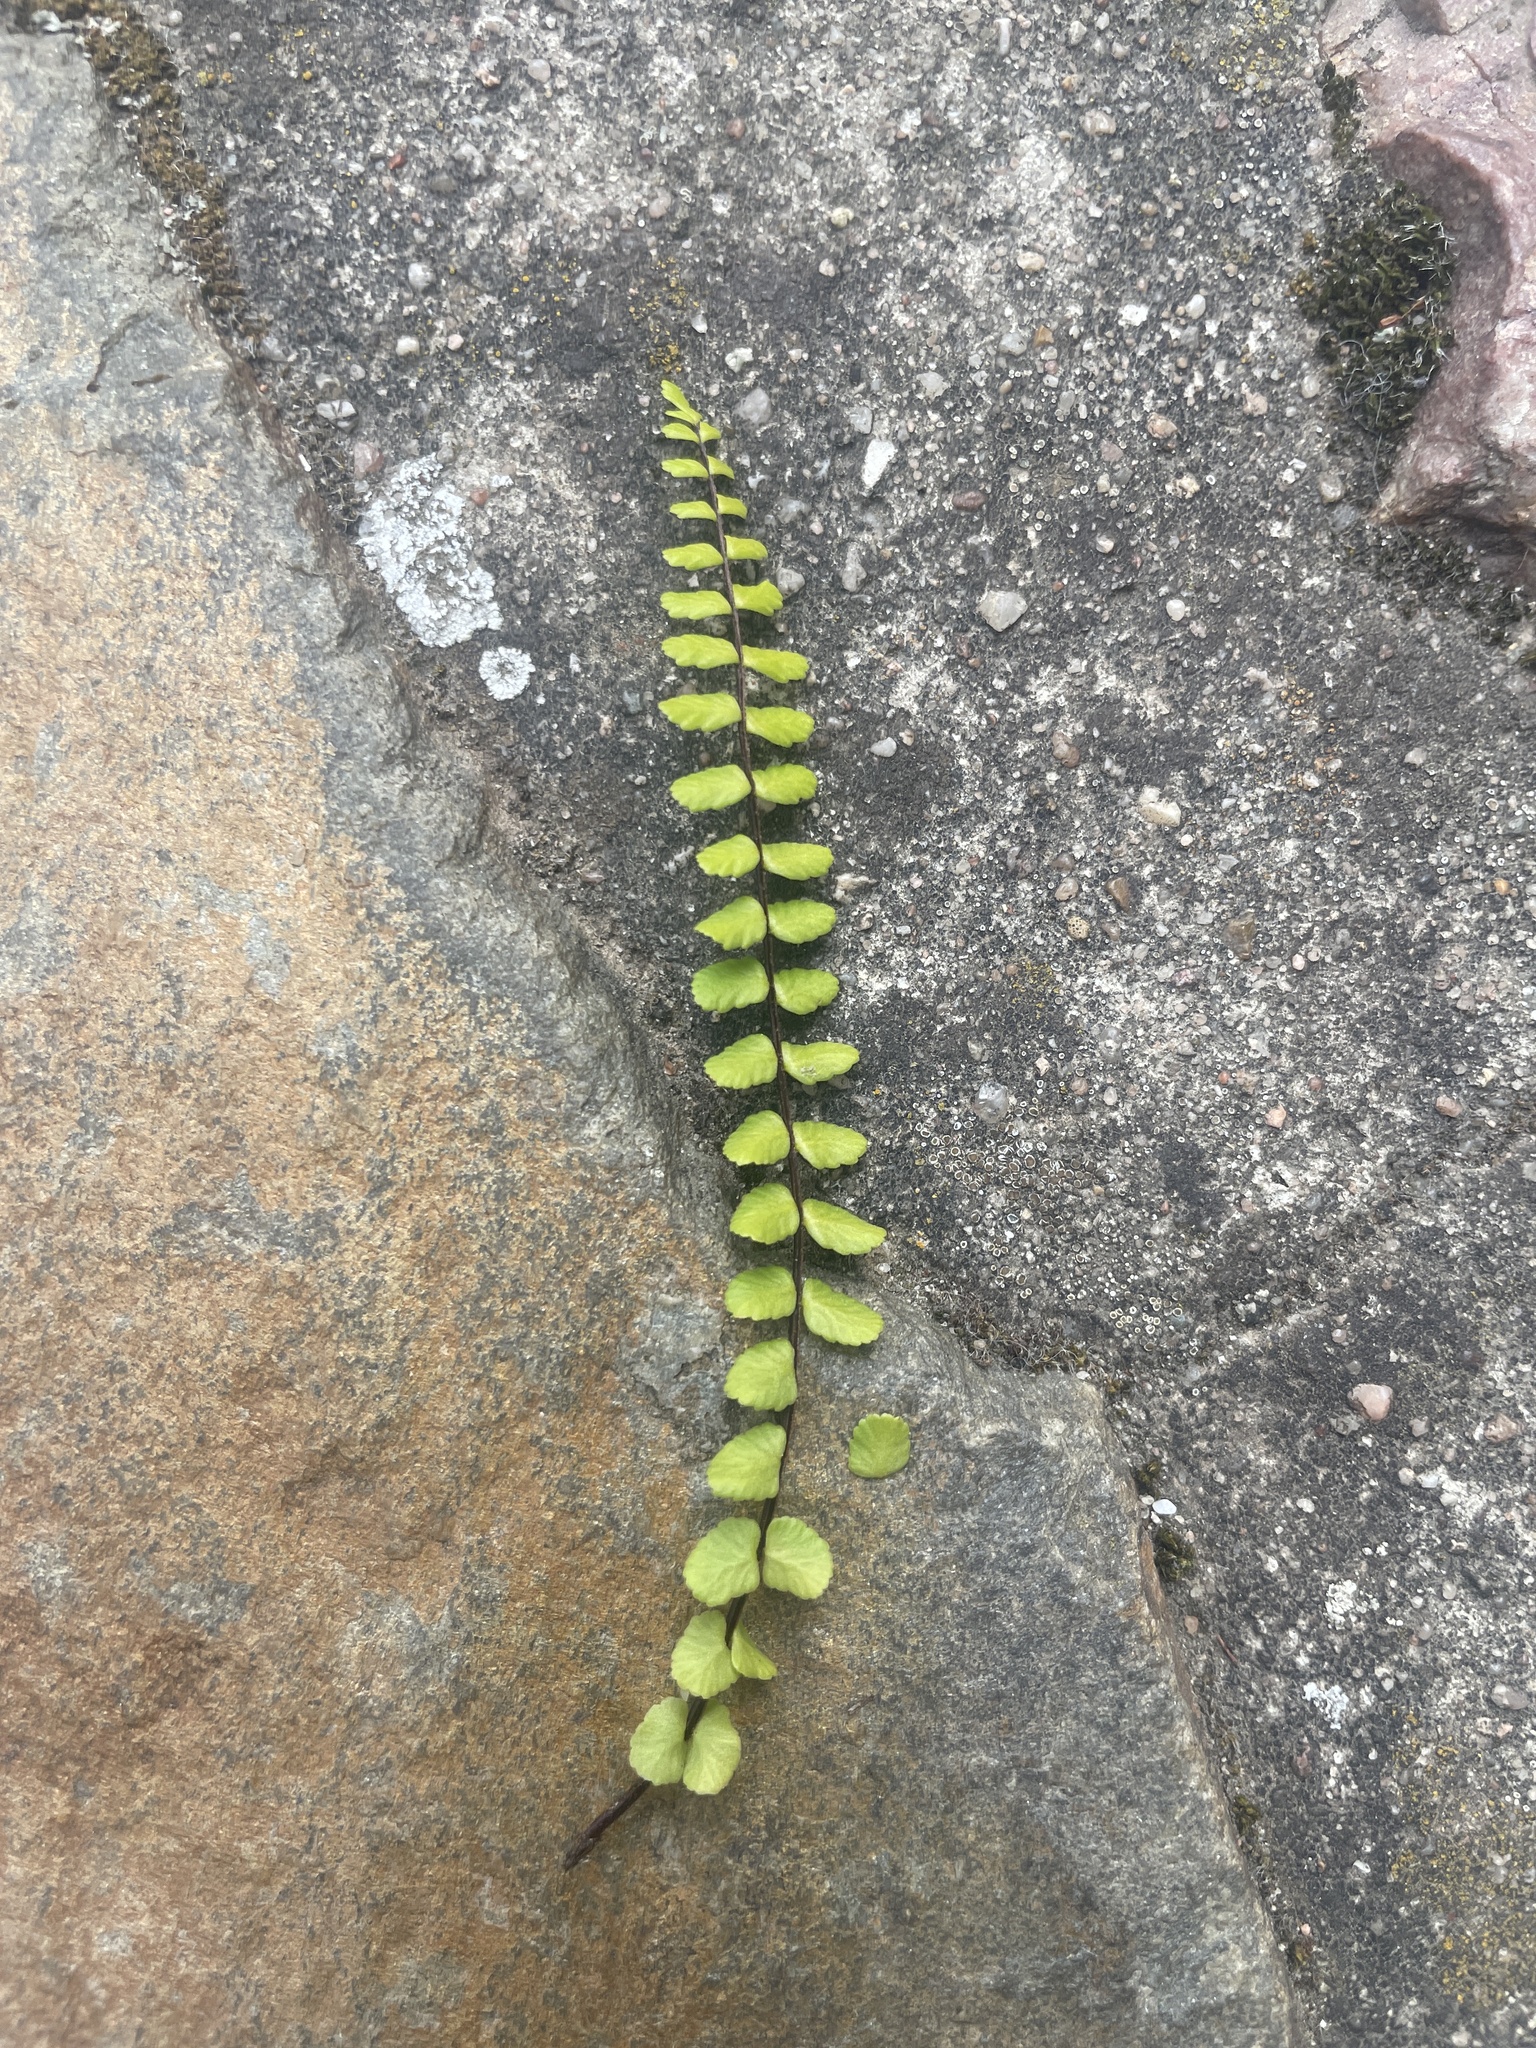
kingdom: Plantae
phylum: Tracheophyta
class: Polypodiopsida
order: Polypodiales
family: Aspleniaceae
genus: Asplenium
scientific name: Asplenium trichomanes
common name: Maidenhair spleenwort
